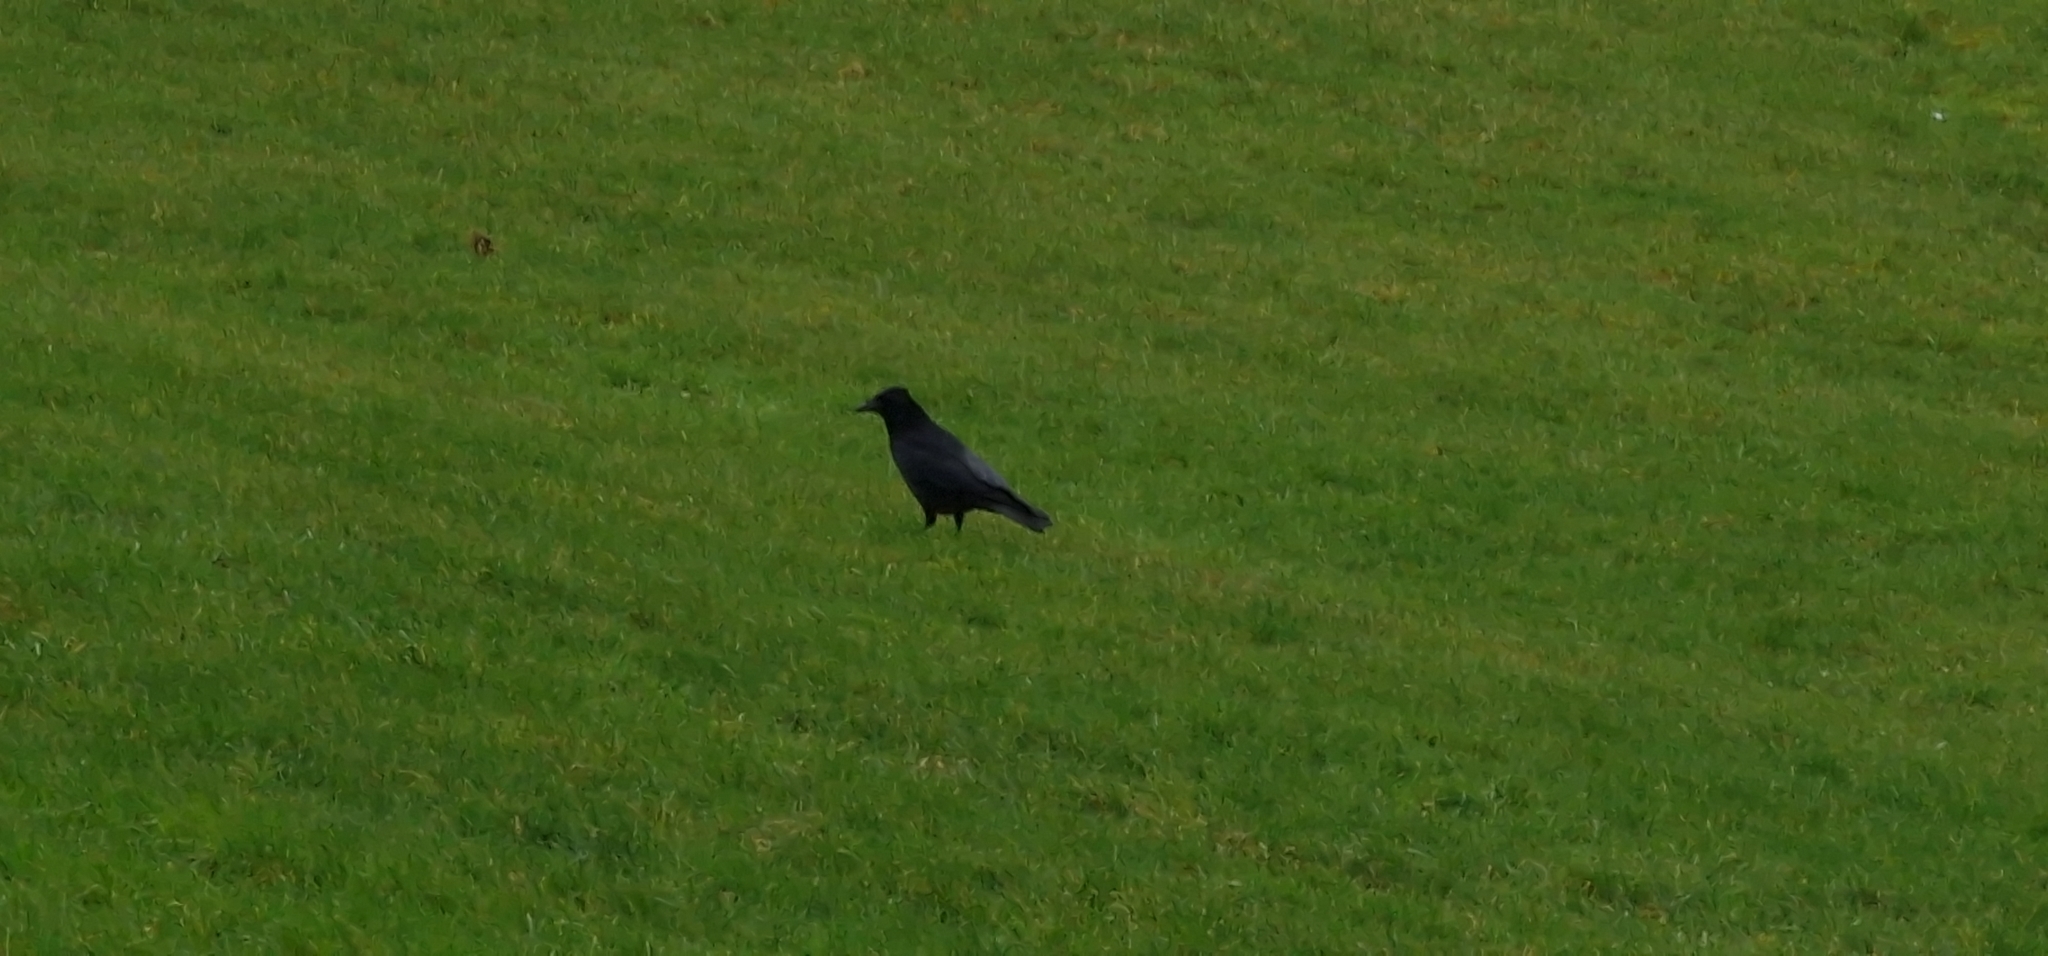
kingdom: Animalia
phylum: Chordata
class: Aves
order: Passeriformes
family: Corvidae
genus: Corvus
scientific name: Corvus corone
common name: Carrion crow
